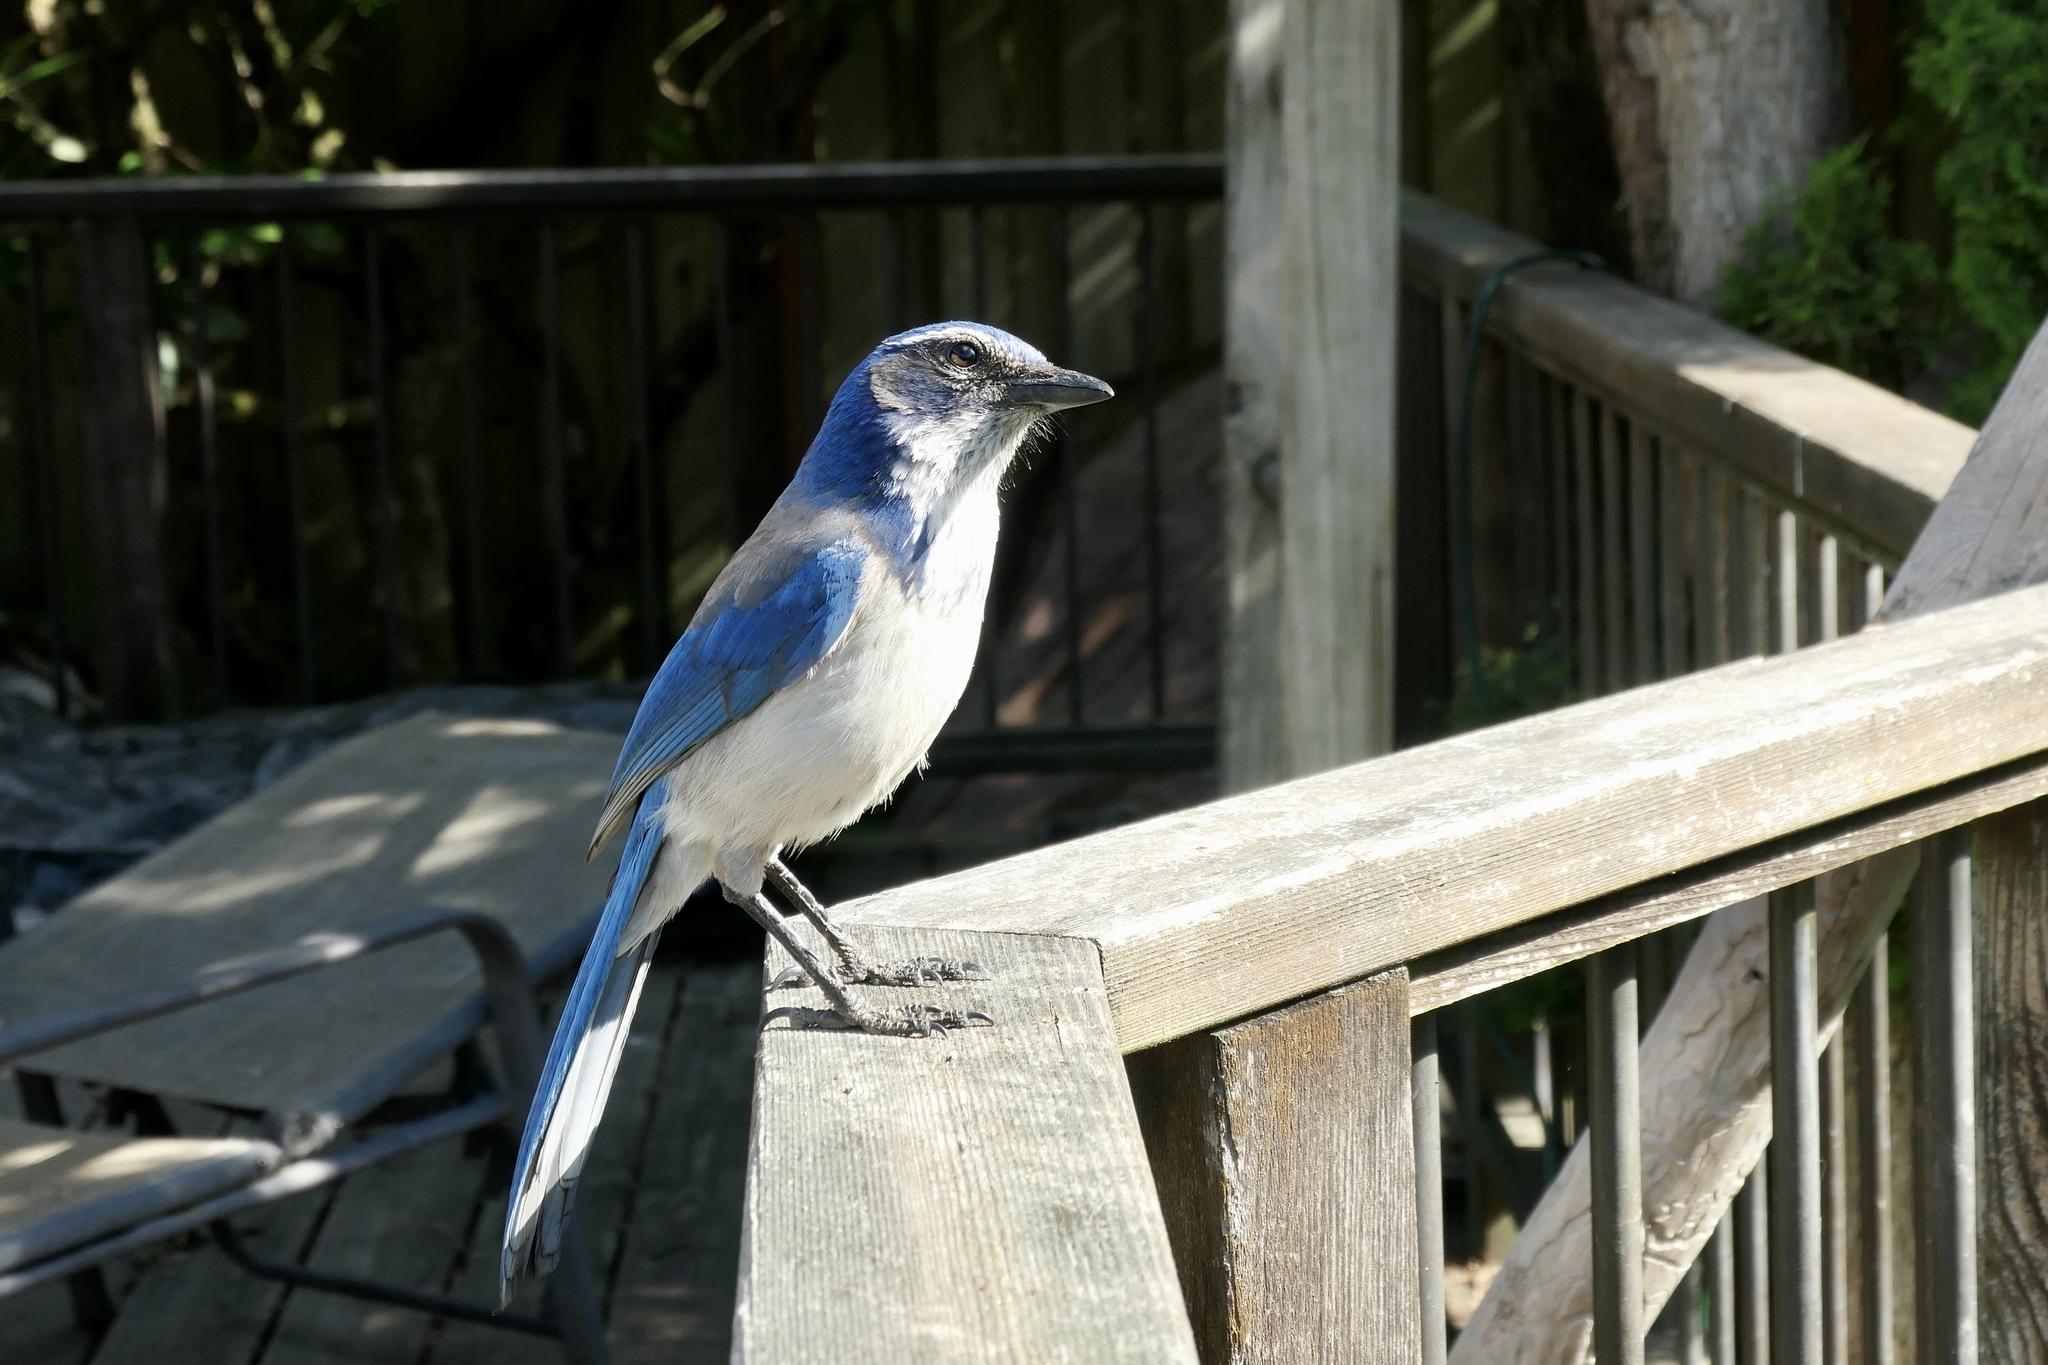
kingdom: Animalia
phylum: Chordata
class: Aves
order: Passeriformes
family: Corvidae
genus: Aphelocoma
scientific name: Aphelocoma californica
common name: California scrub-jay
